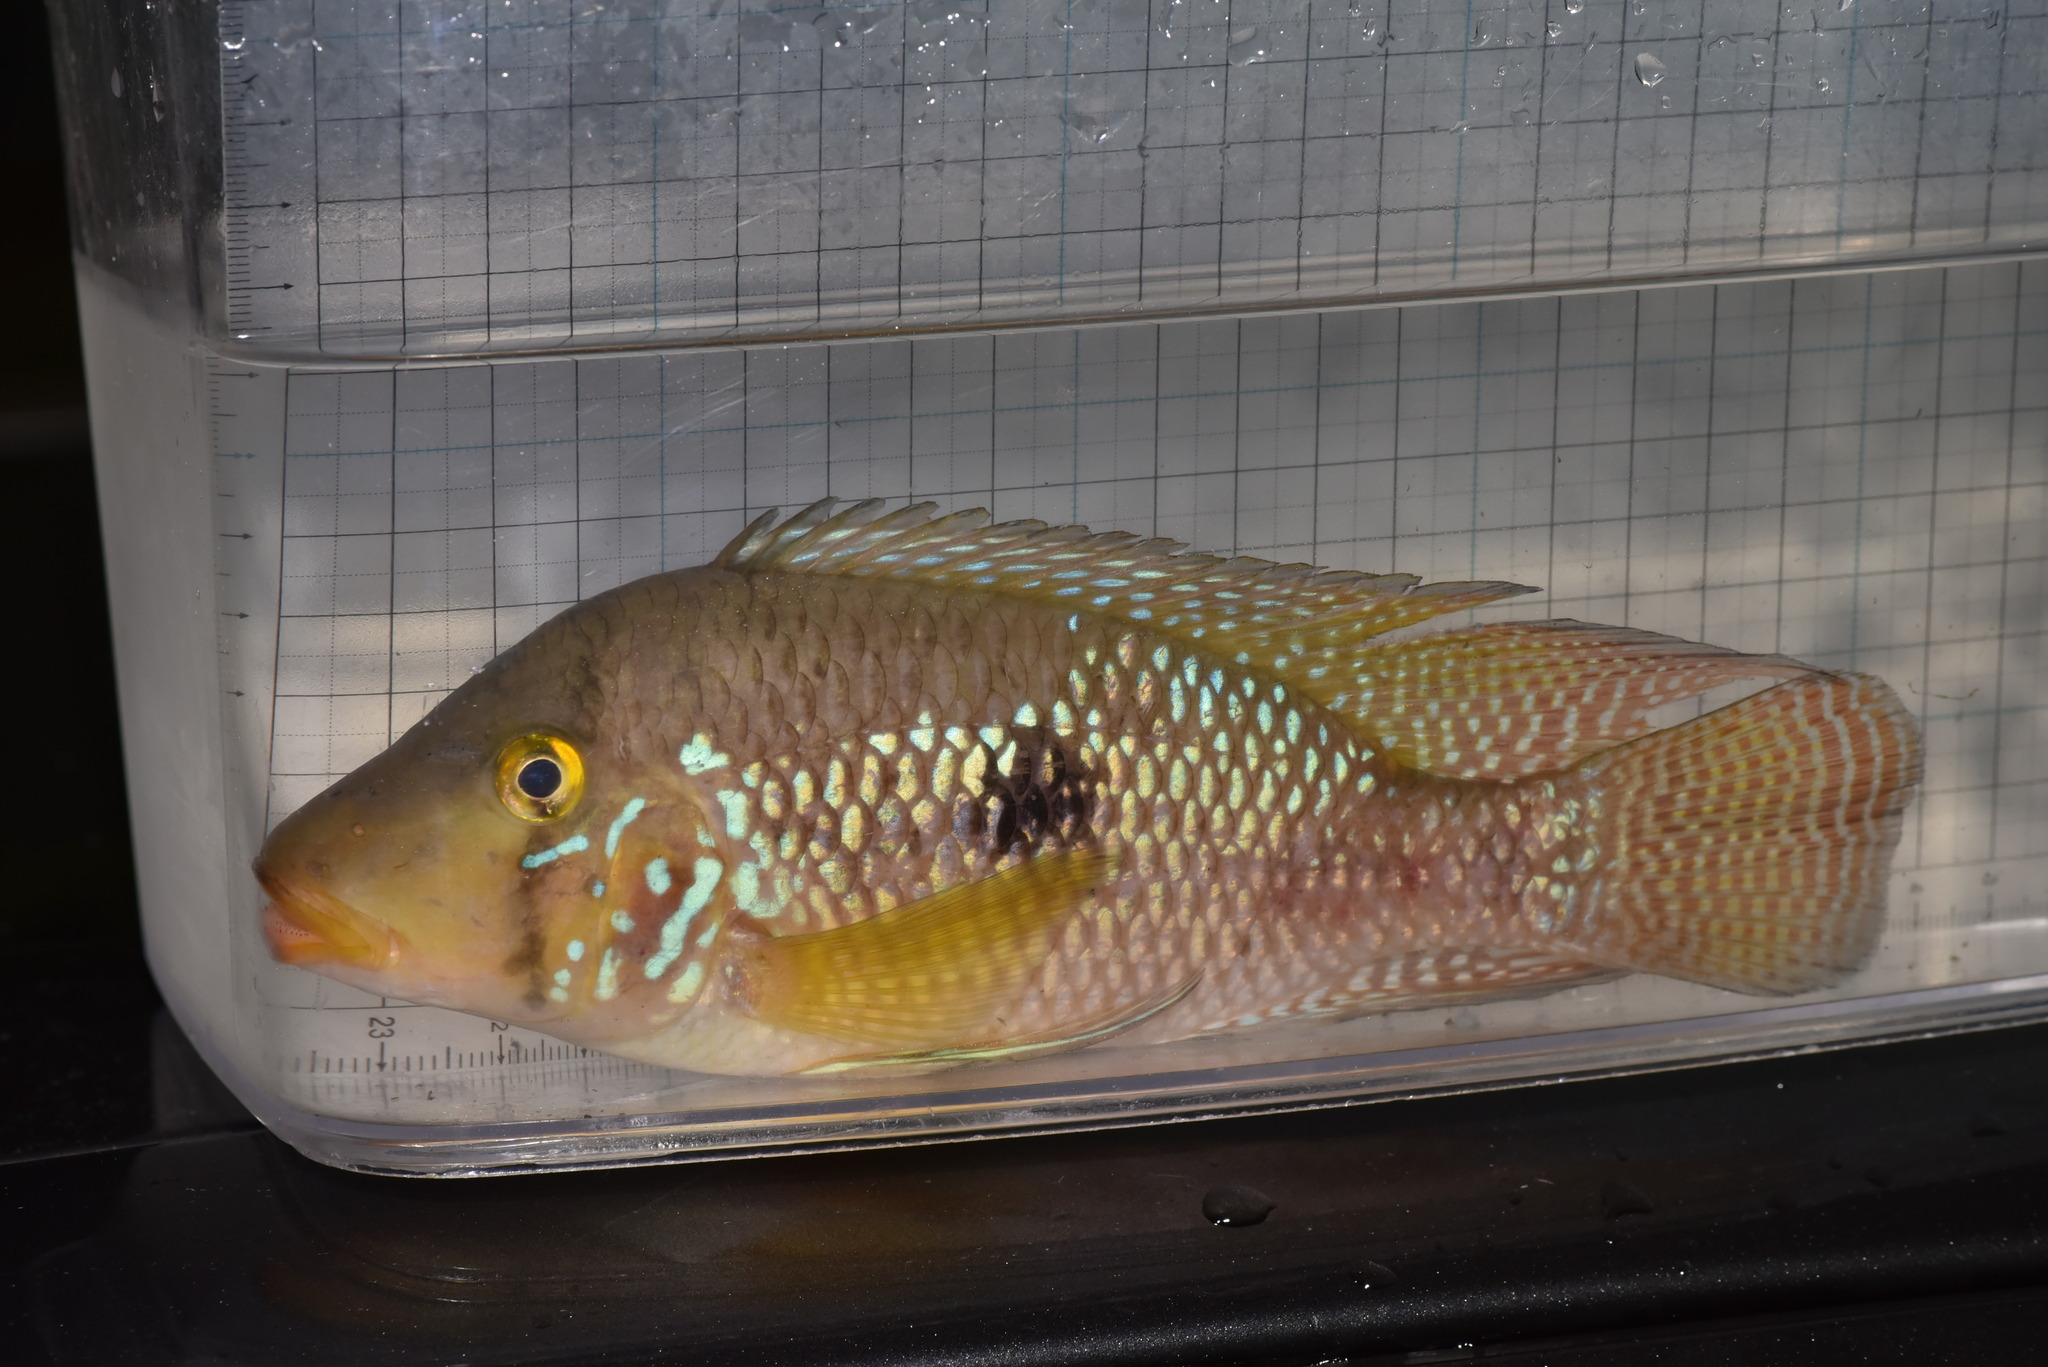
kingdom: Animalia
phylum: Chordata
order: Perciformes
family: Cichlidae
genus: Geophagus
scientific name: Geophagus brasiliensis
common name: Braziliensis
